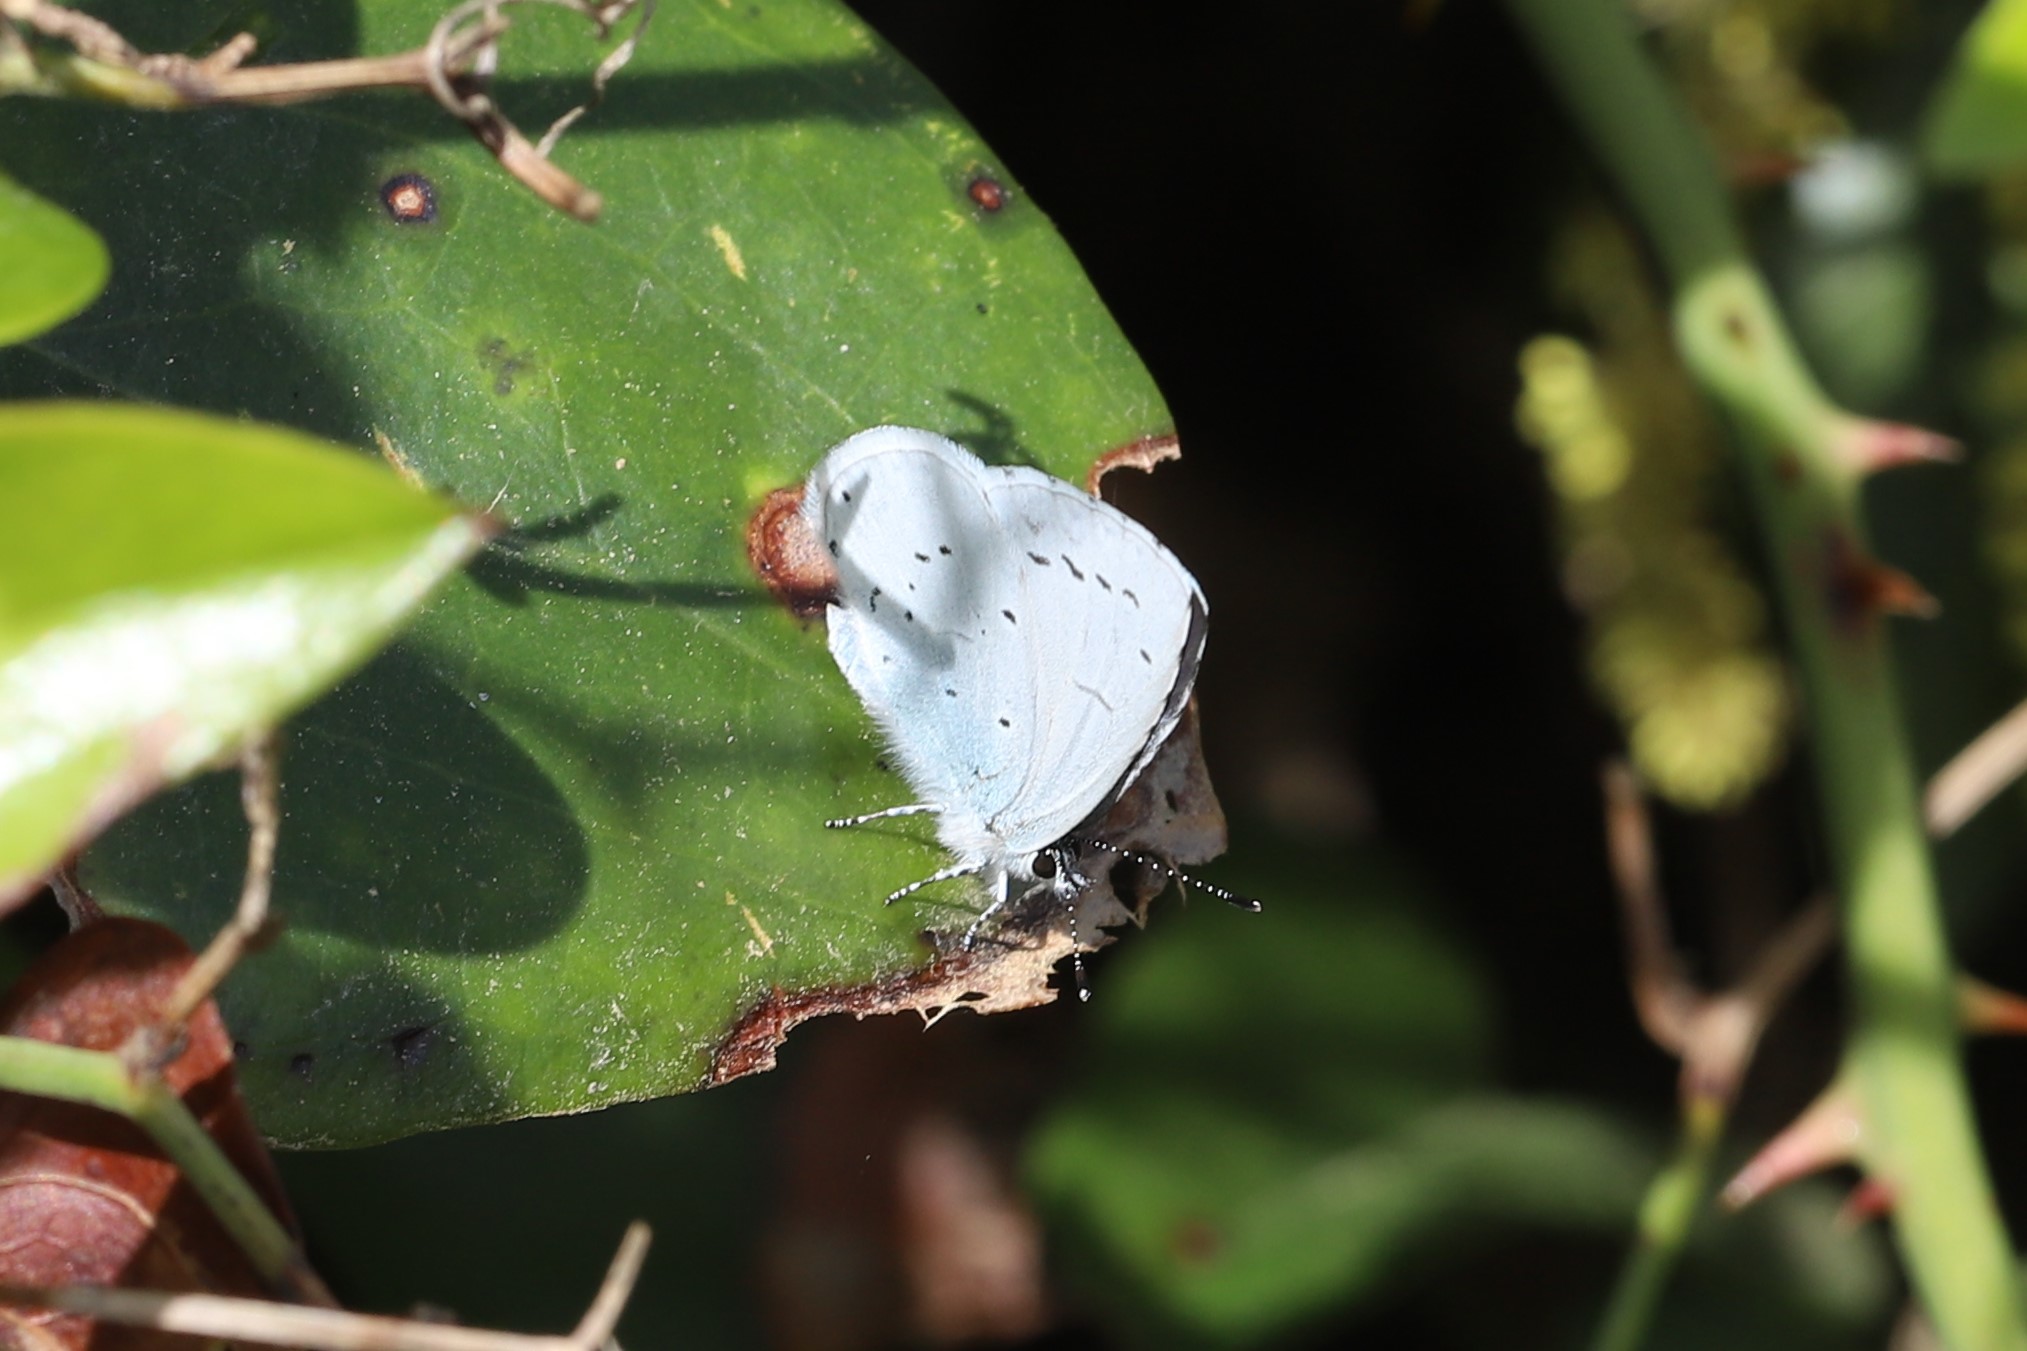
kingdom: Animalia
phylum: Arthropoda
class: Insecta
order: Lepidoptera
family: Lycaenidae
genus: Celastrina
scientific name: Celastrina argiolus
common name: Holly blue
